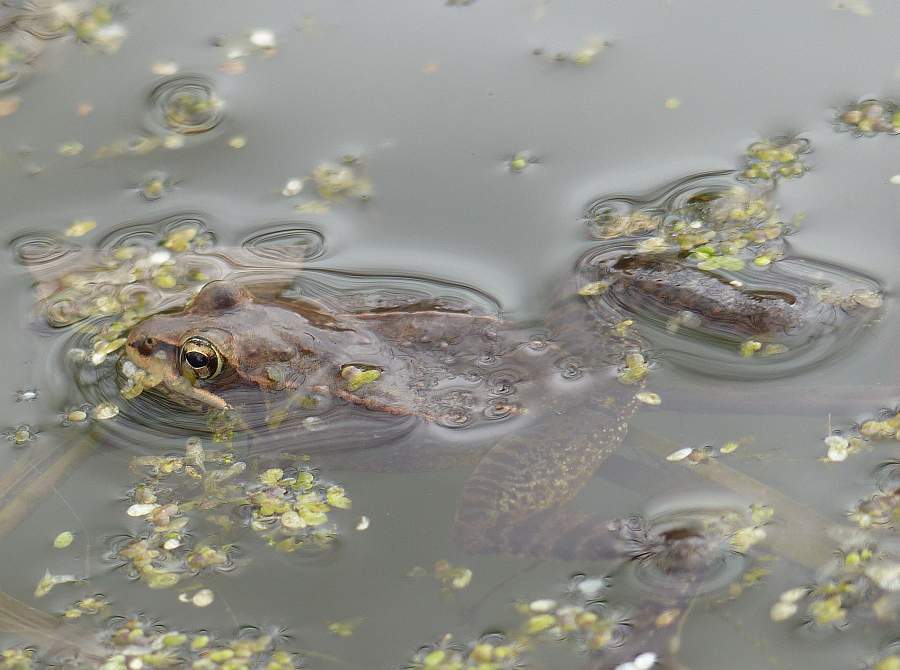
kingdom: Animalia
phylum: Chordata
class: Amphibia
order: Anura
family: Ranidae
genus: Lithobates
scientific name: Lithobates sylvaticus
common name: Wood frog
